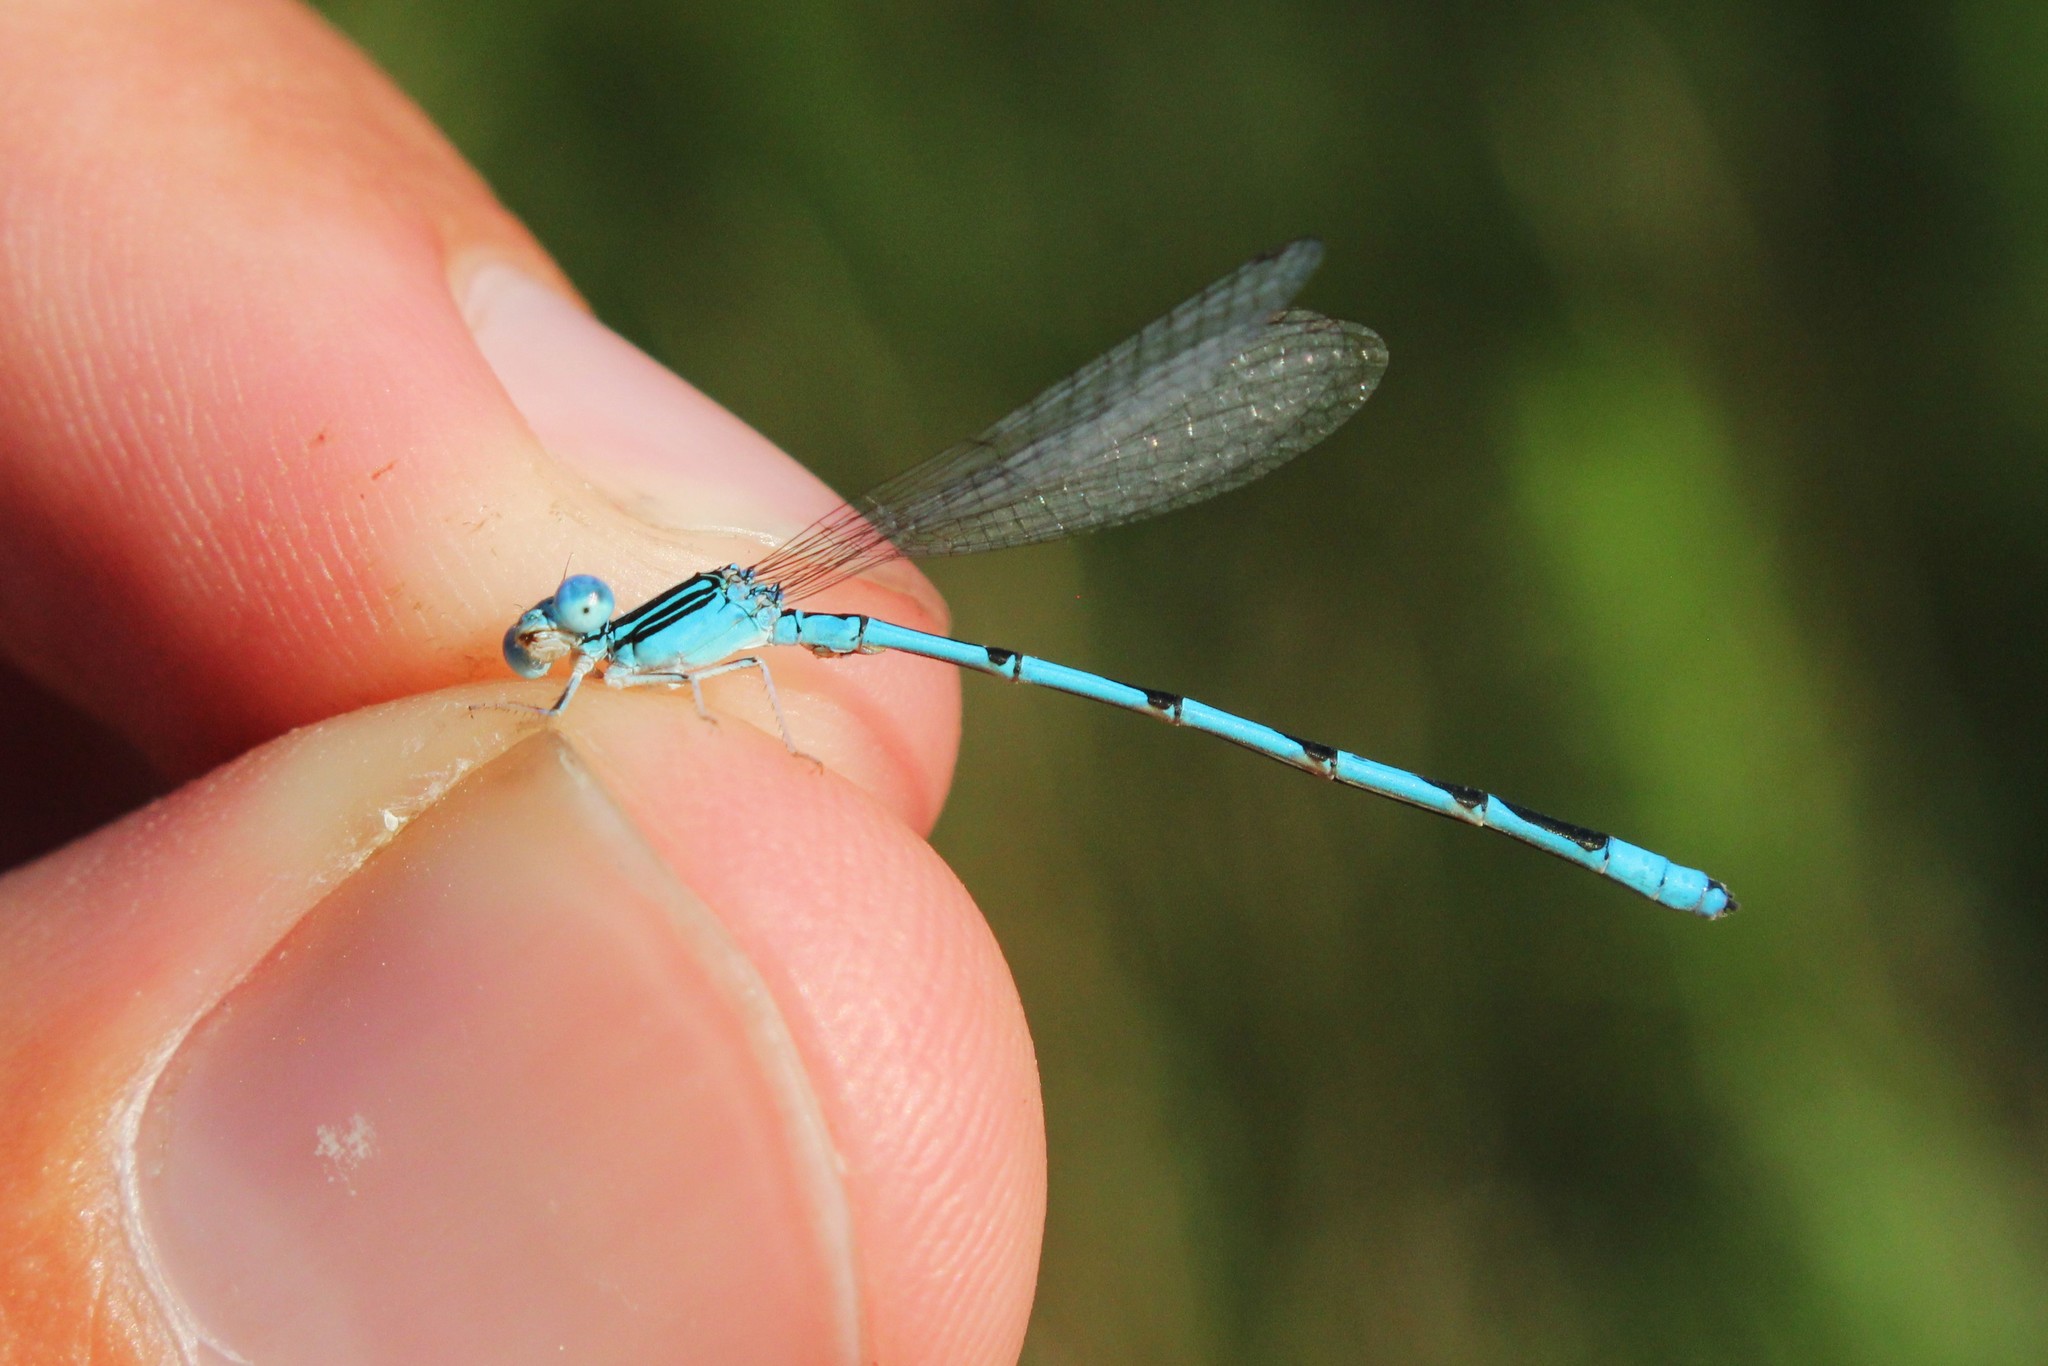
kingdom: Animalia
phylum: Arthropoda
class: Insecta
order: Odonata
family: Coenagrionidae
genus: Enallagma
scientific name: Enallagma basidens
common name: Double-striped bluet
